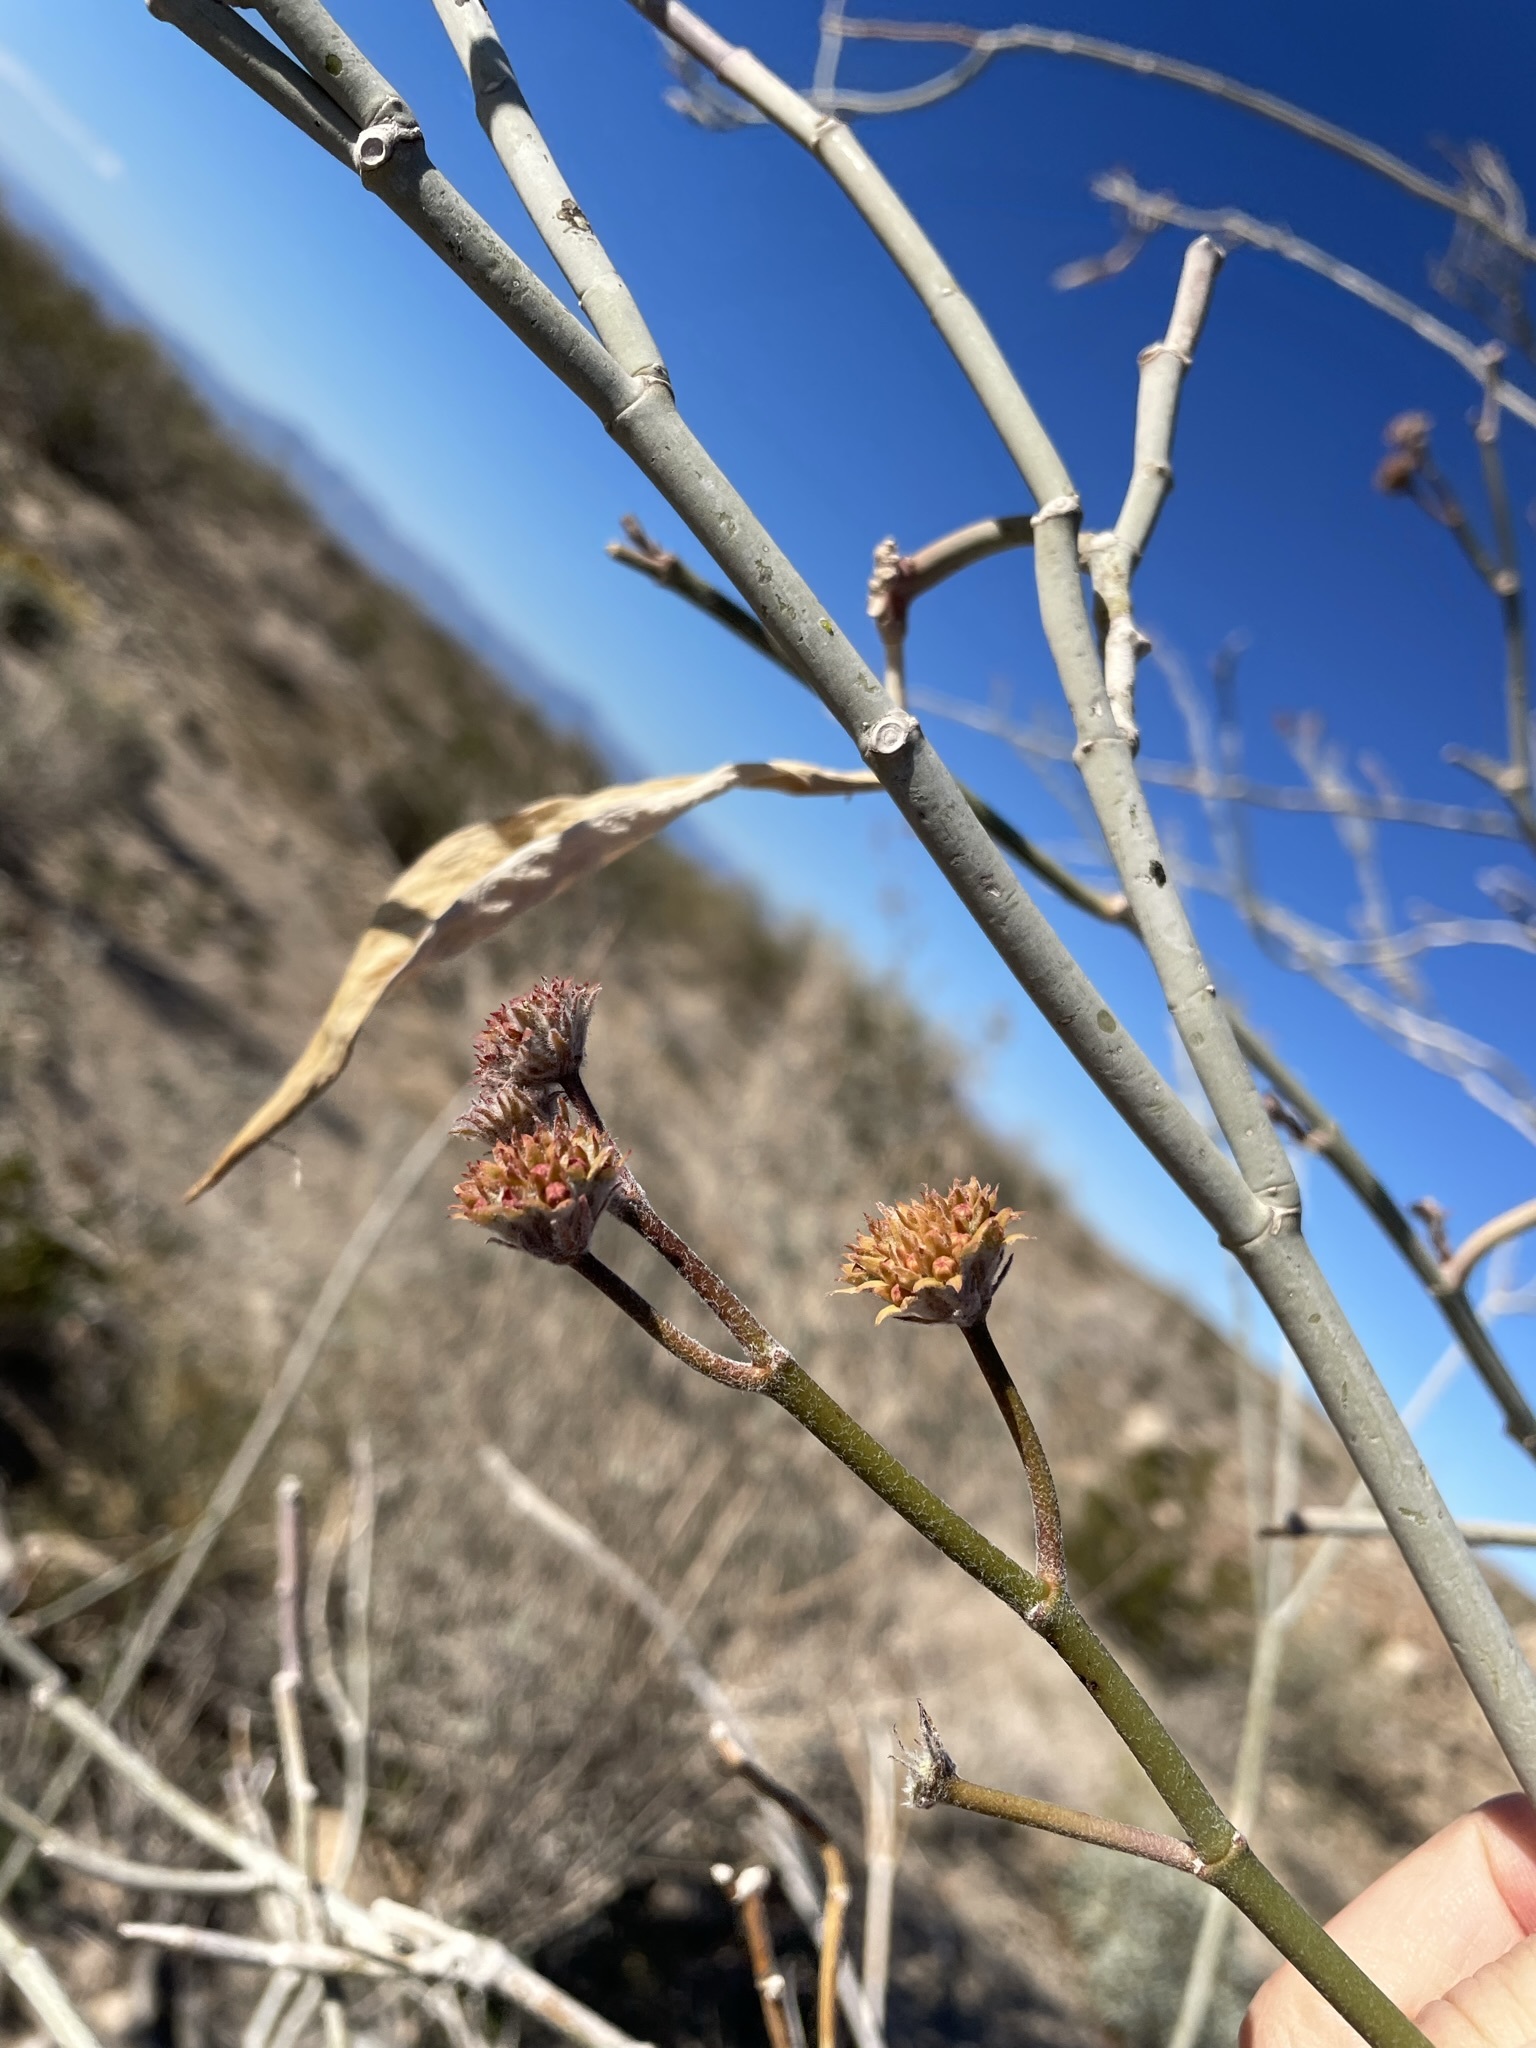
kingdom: Plantae
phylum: Tracheophyta
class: Magnoliopsida
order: Gentianales
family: Apocynaceae
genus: Asclepias
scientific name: Asclepias albicans
